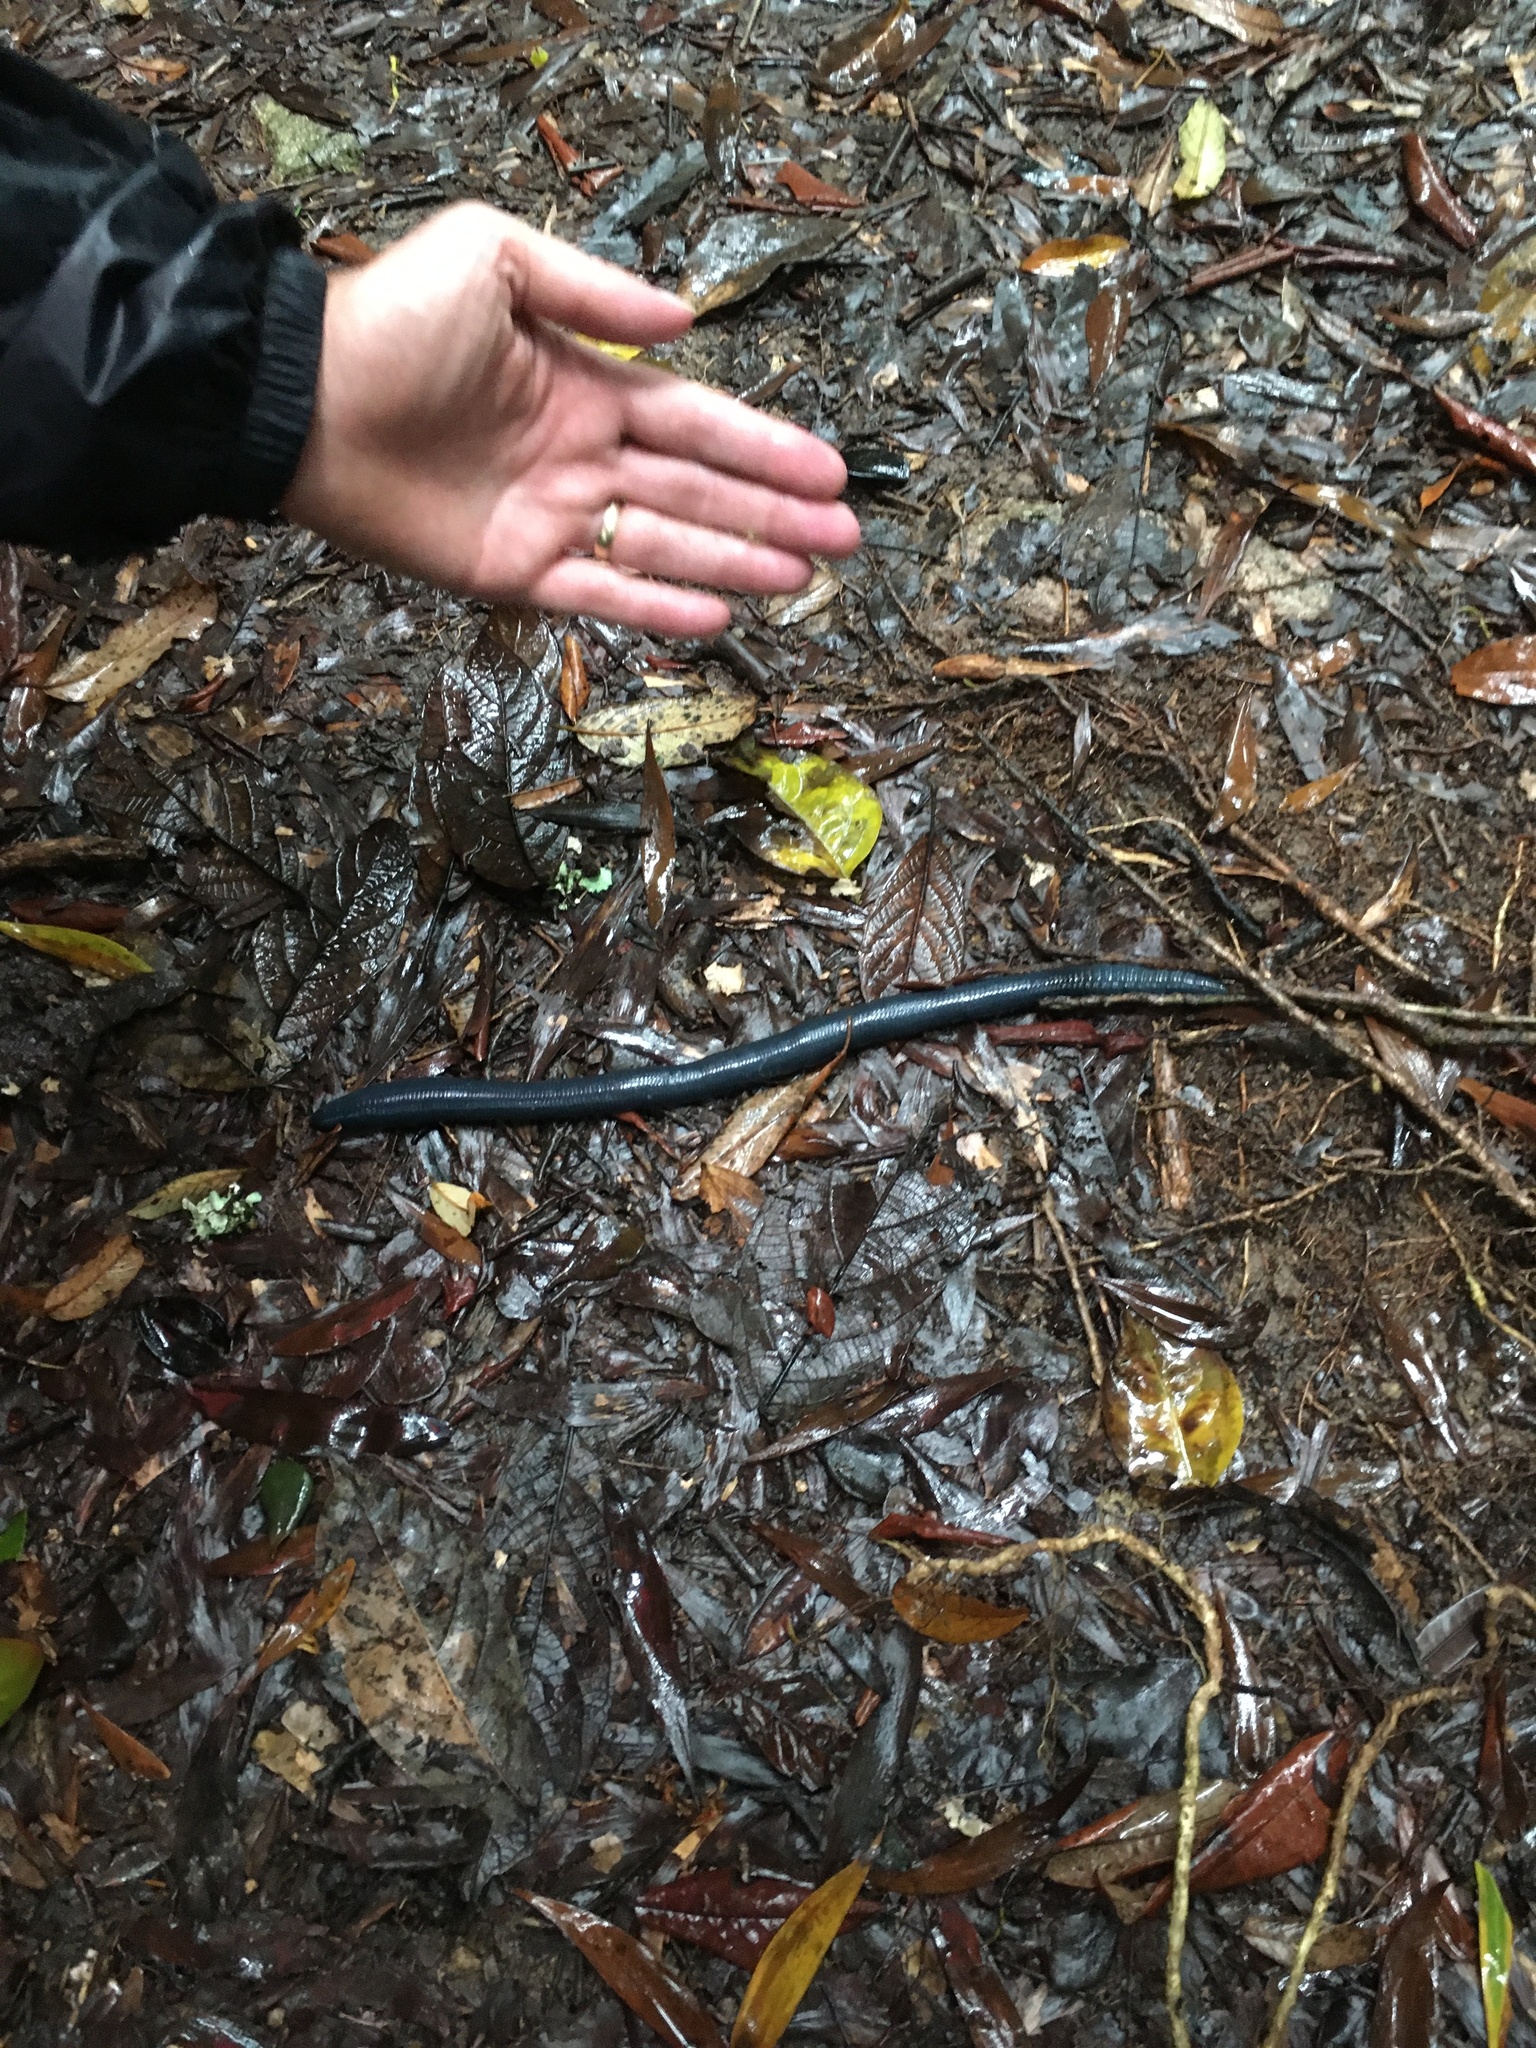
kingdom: Animalia
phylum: Annelida
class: Clitellata
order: Crassiclitellata
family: Megascolecidae
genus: Terriswalkerius
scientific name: Terriswalkerius terraereginae
